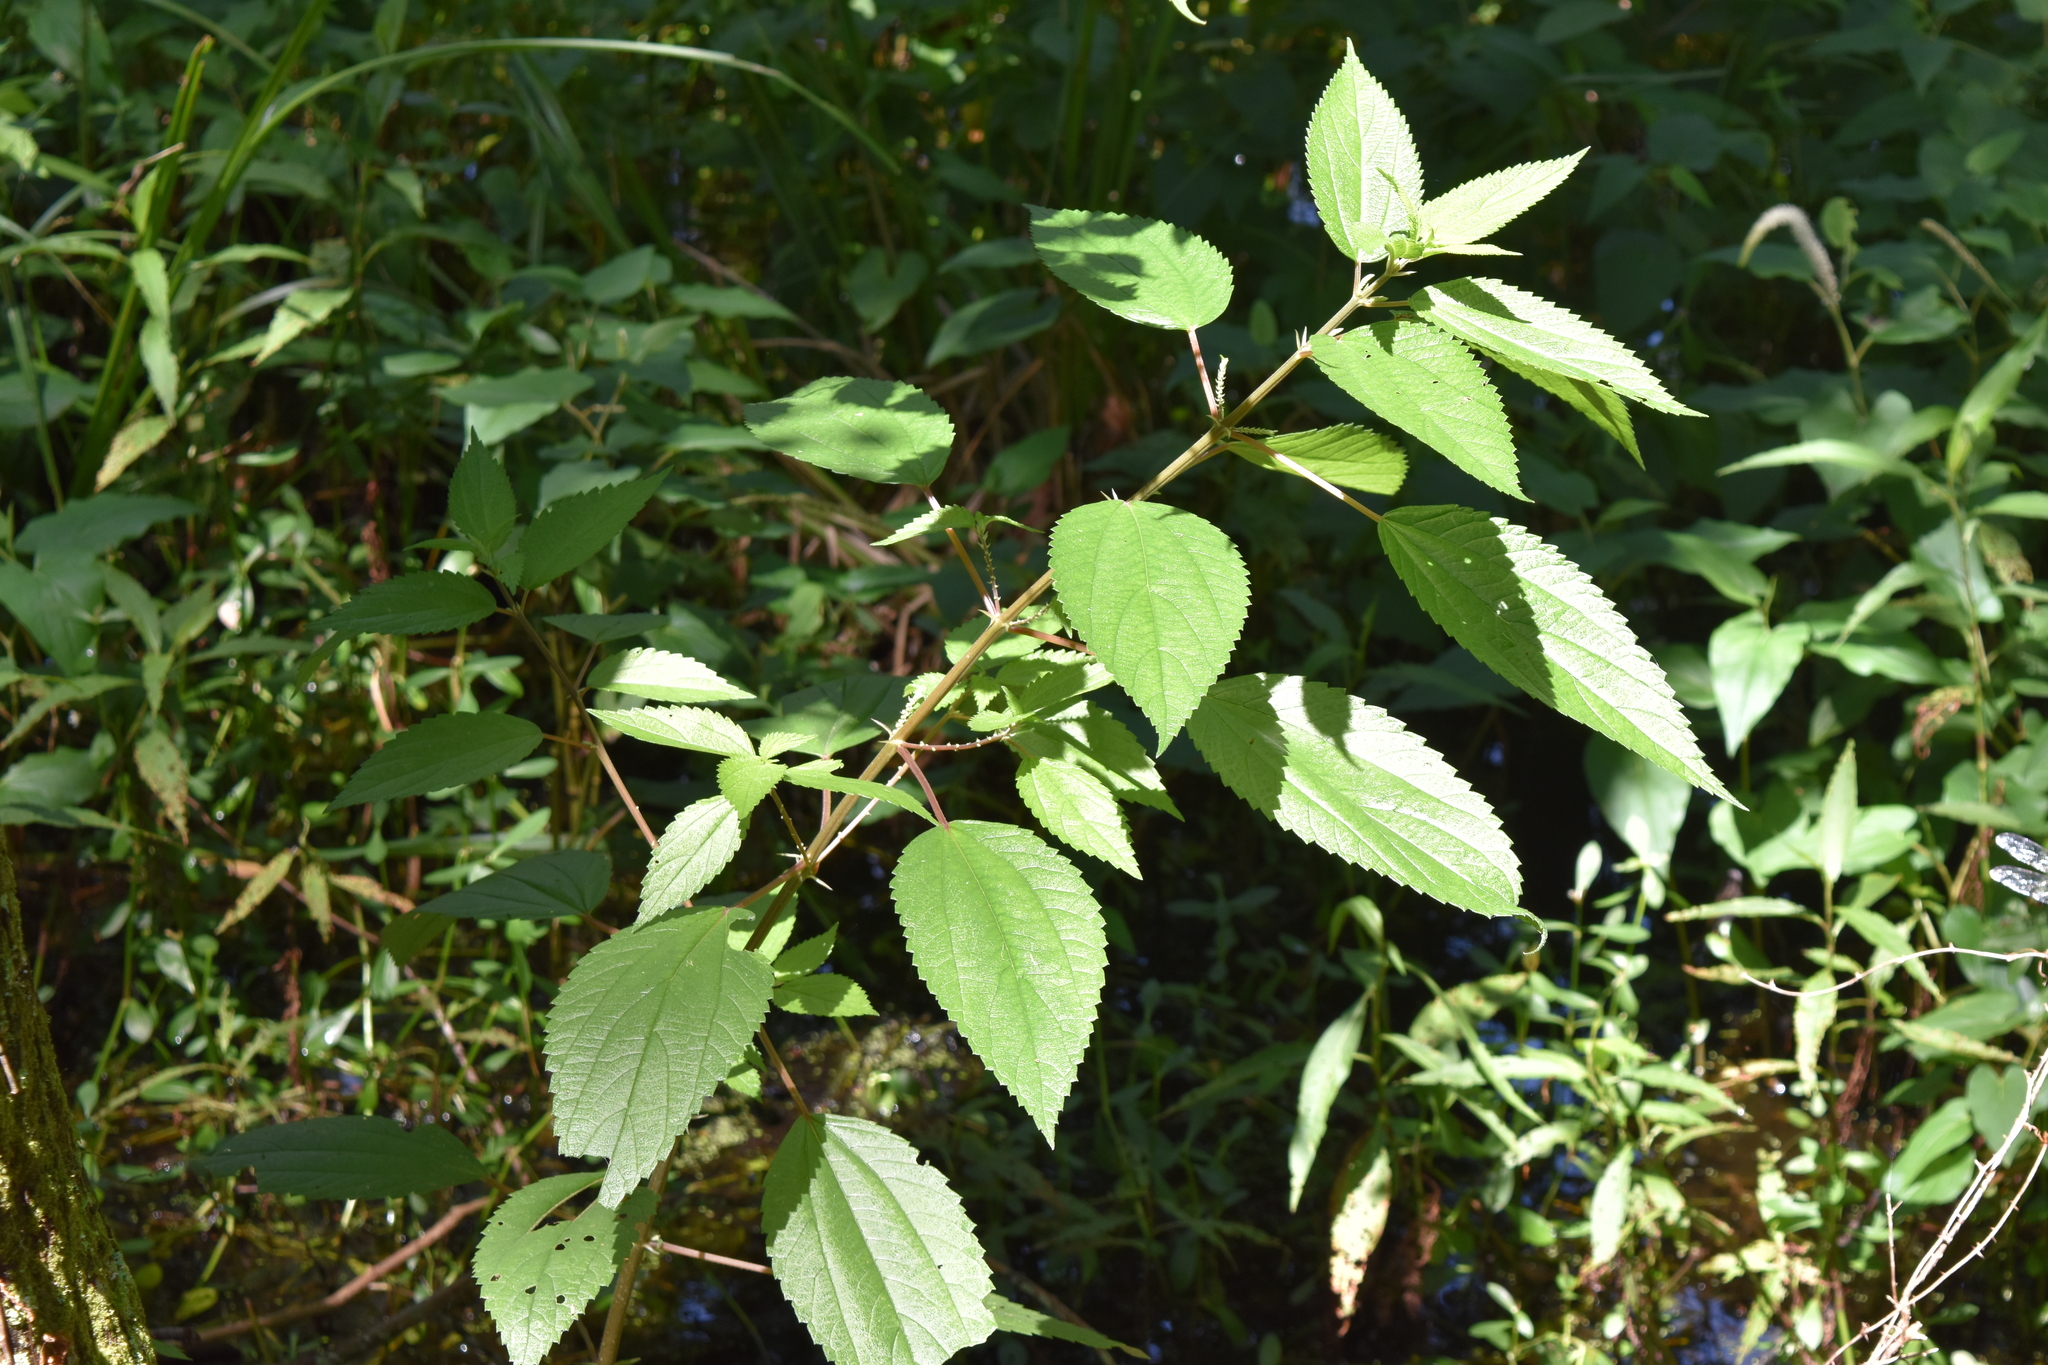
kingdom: Plantae
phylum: Tracheophyta
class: Magnoliopsida
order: Rosales
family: Urticaceae
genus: Boehmeria
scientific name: Boehmeria cylindrica
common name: Bog-hemp
